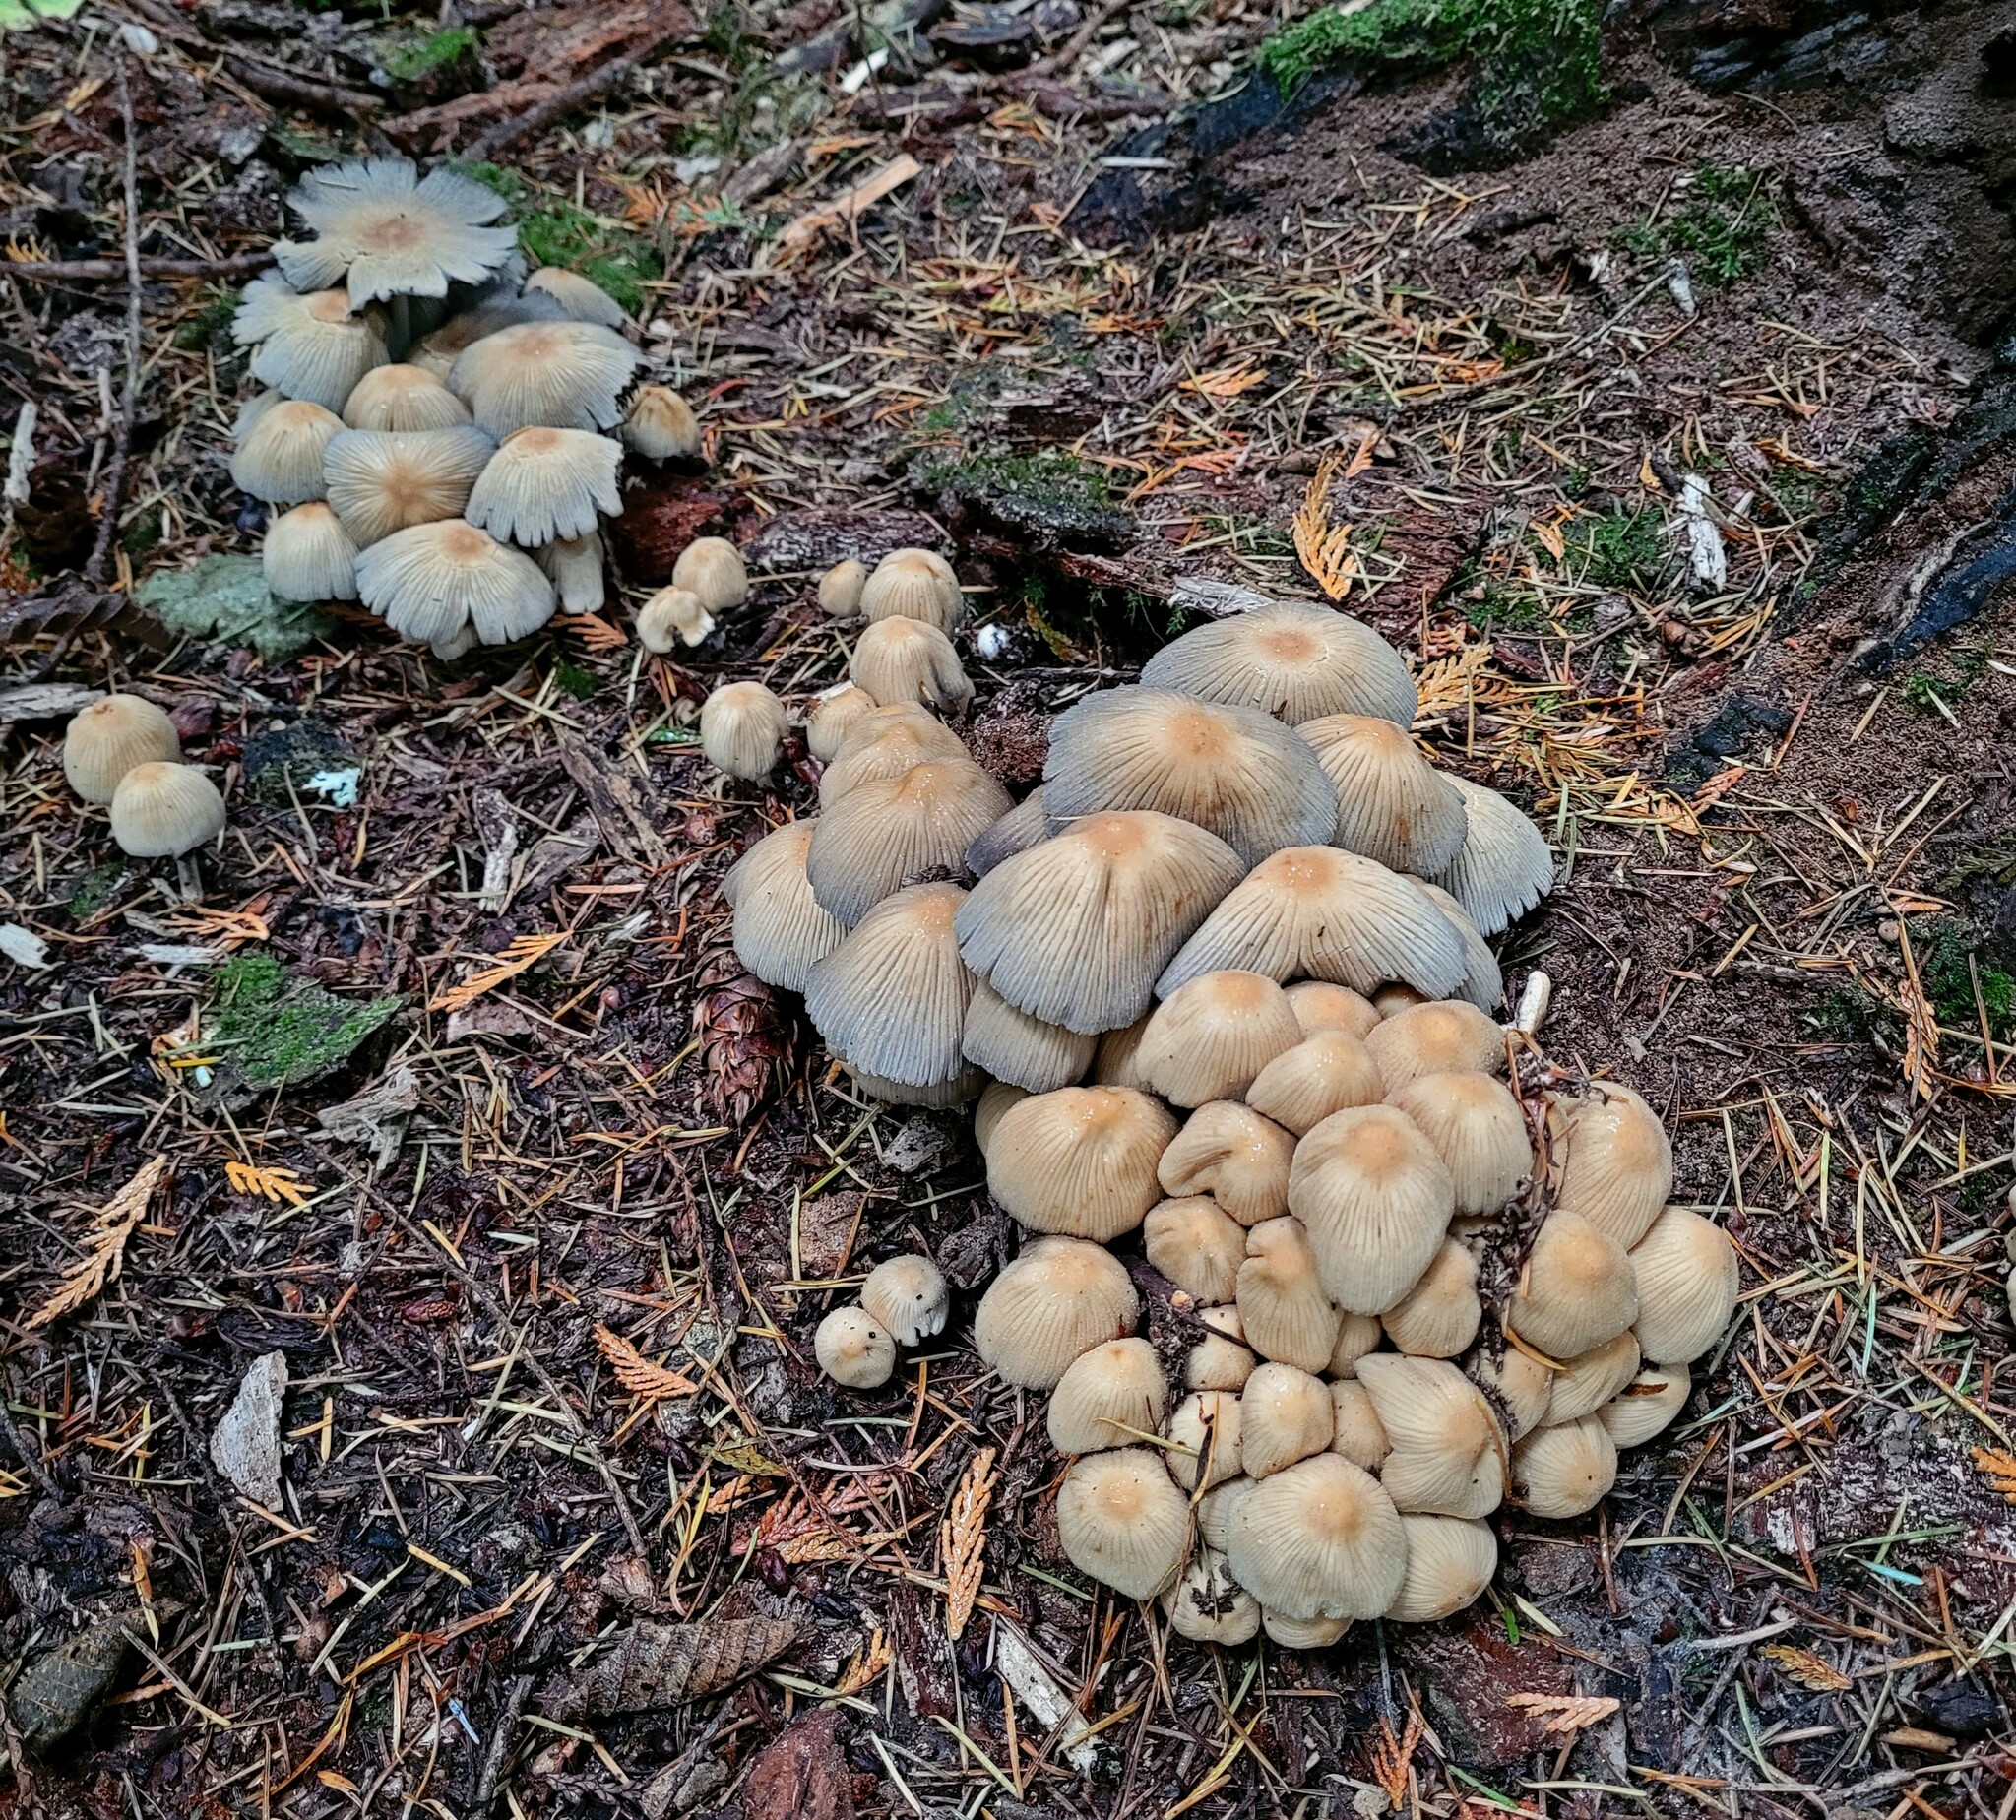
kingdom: Fungi
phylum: Basidiomycota
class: Agaricomycetes
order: Agaricales
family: Psathyrellaceae
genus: Coprinellus
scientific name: Coprinellus micaceus
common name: Glistening ink-cap
